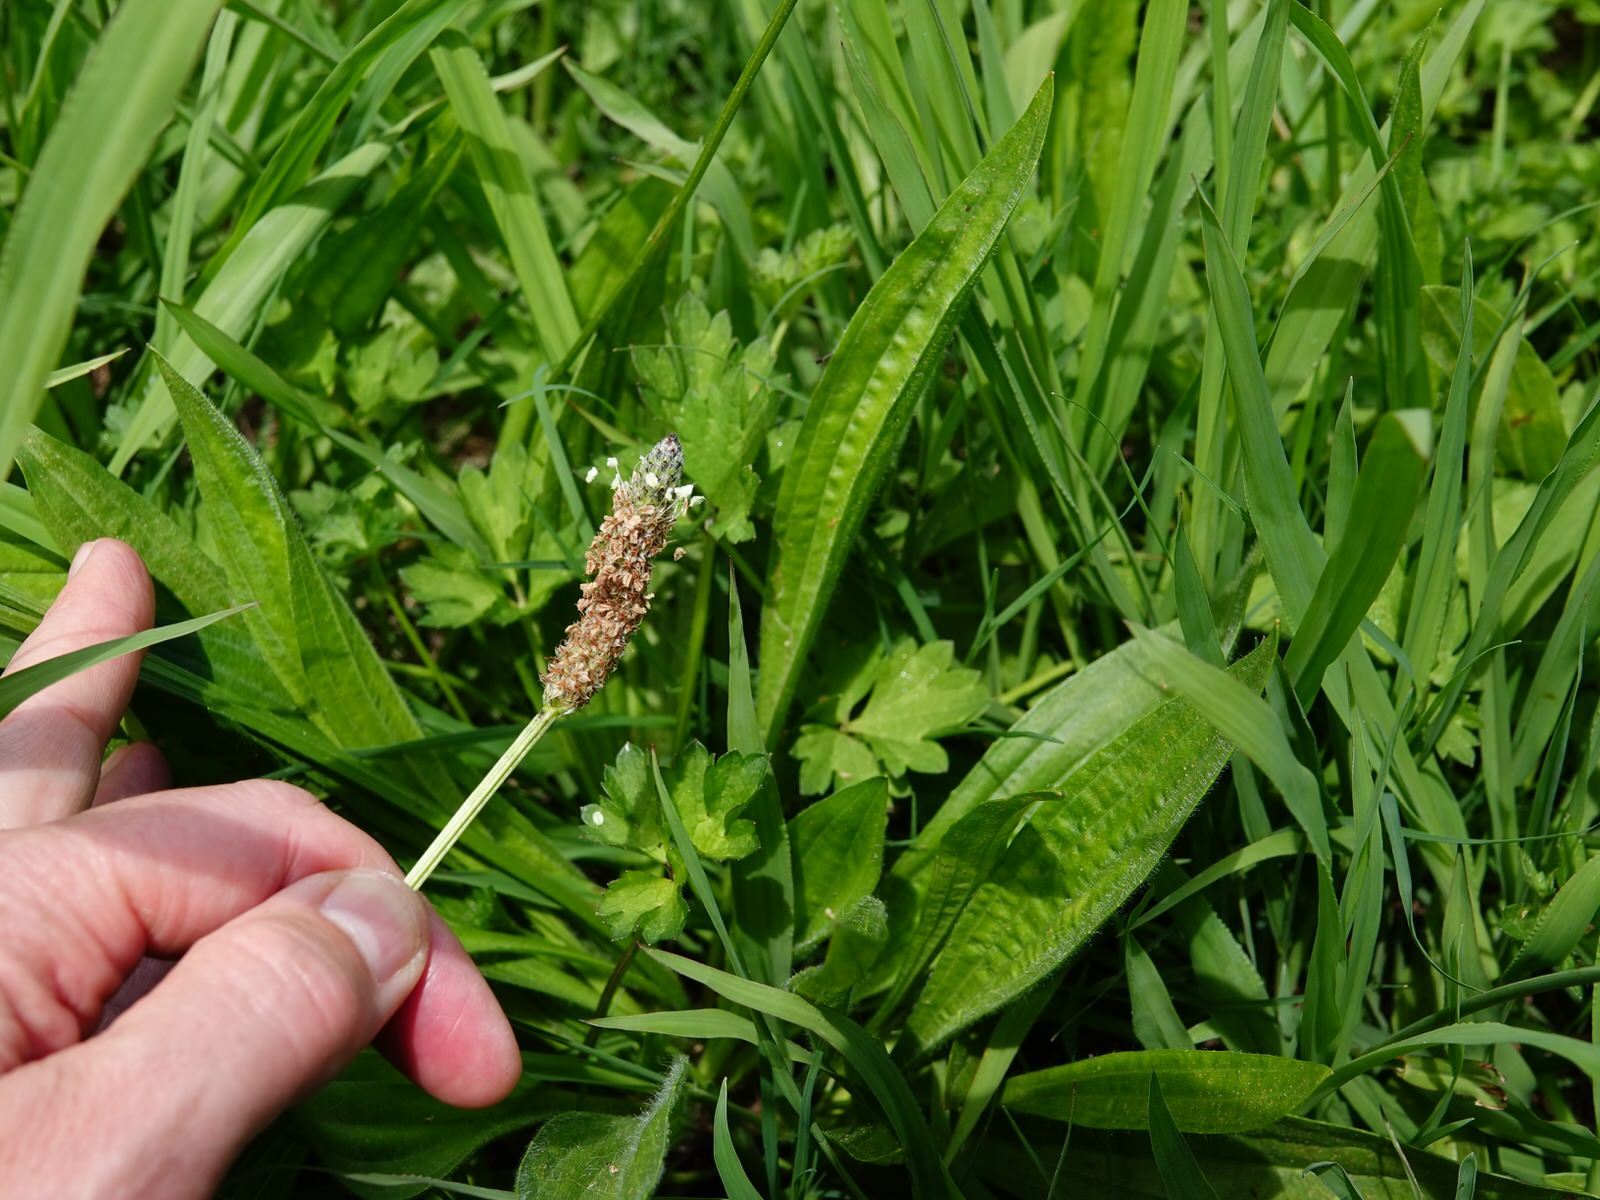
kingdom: Plantae
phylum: Tracheophyta
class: Magnoliopsida
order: Lamiales
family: Plantaginaceae
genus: Plantago
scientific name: Plantago lanceolata
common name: Ribwort plantain
